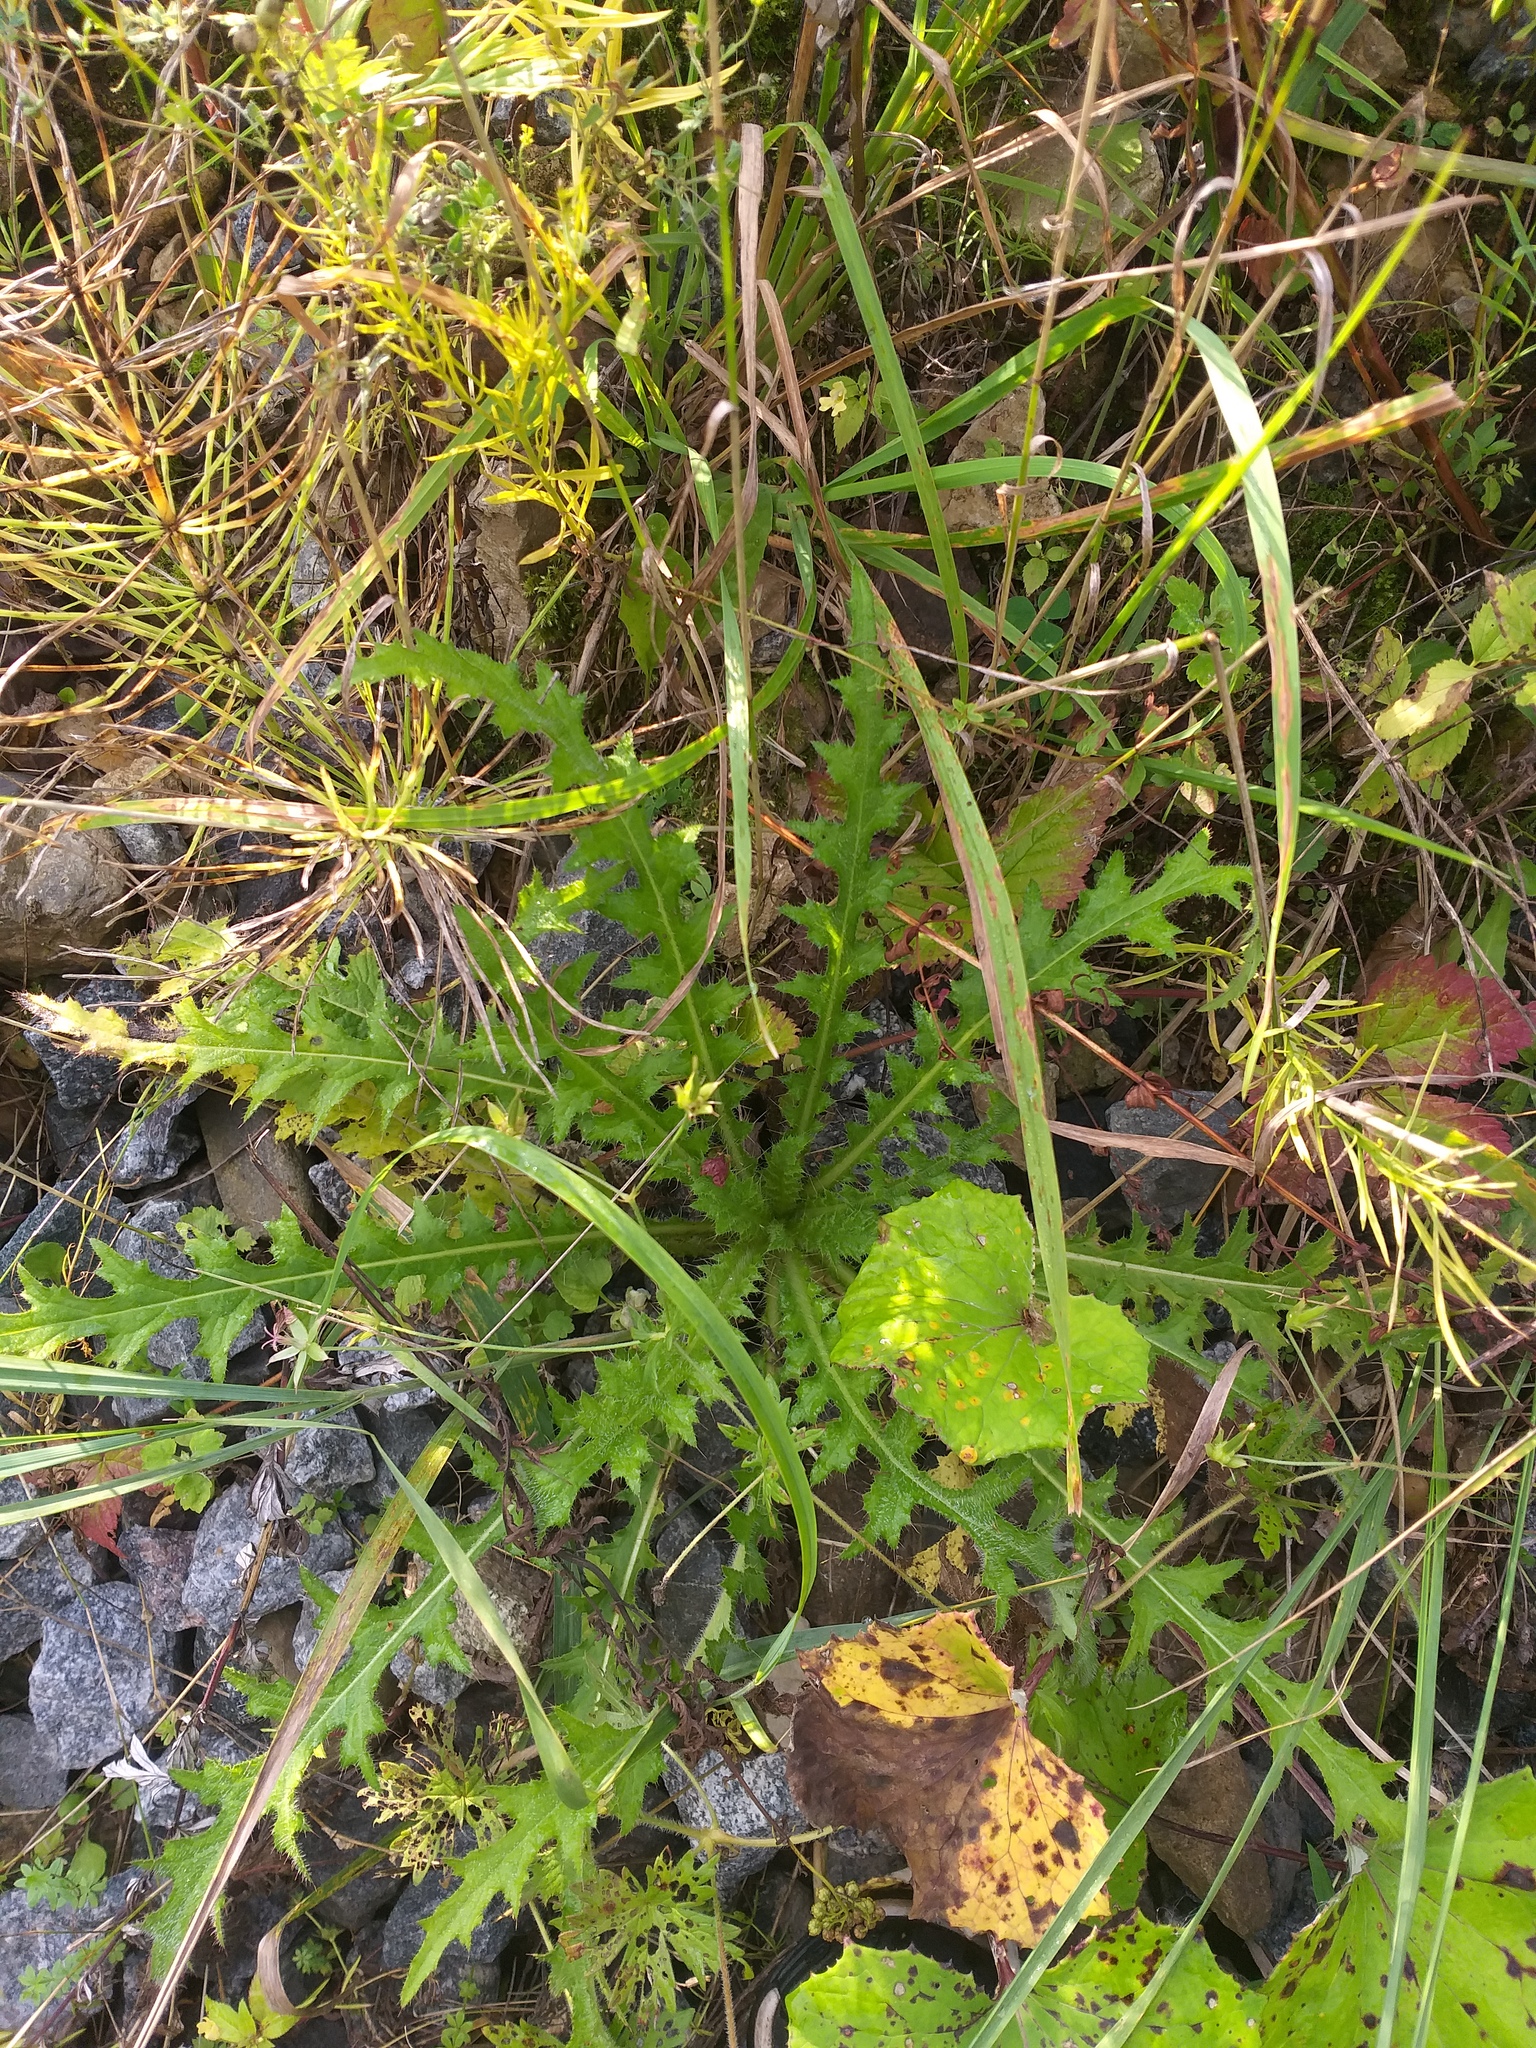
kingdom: Plantae
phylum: Tracheophyta
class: Magnoliopsida
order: Asterales
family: Asteraceae
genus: Cirsium
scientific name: Cirsium palustre
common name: Marsh thistle
